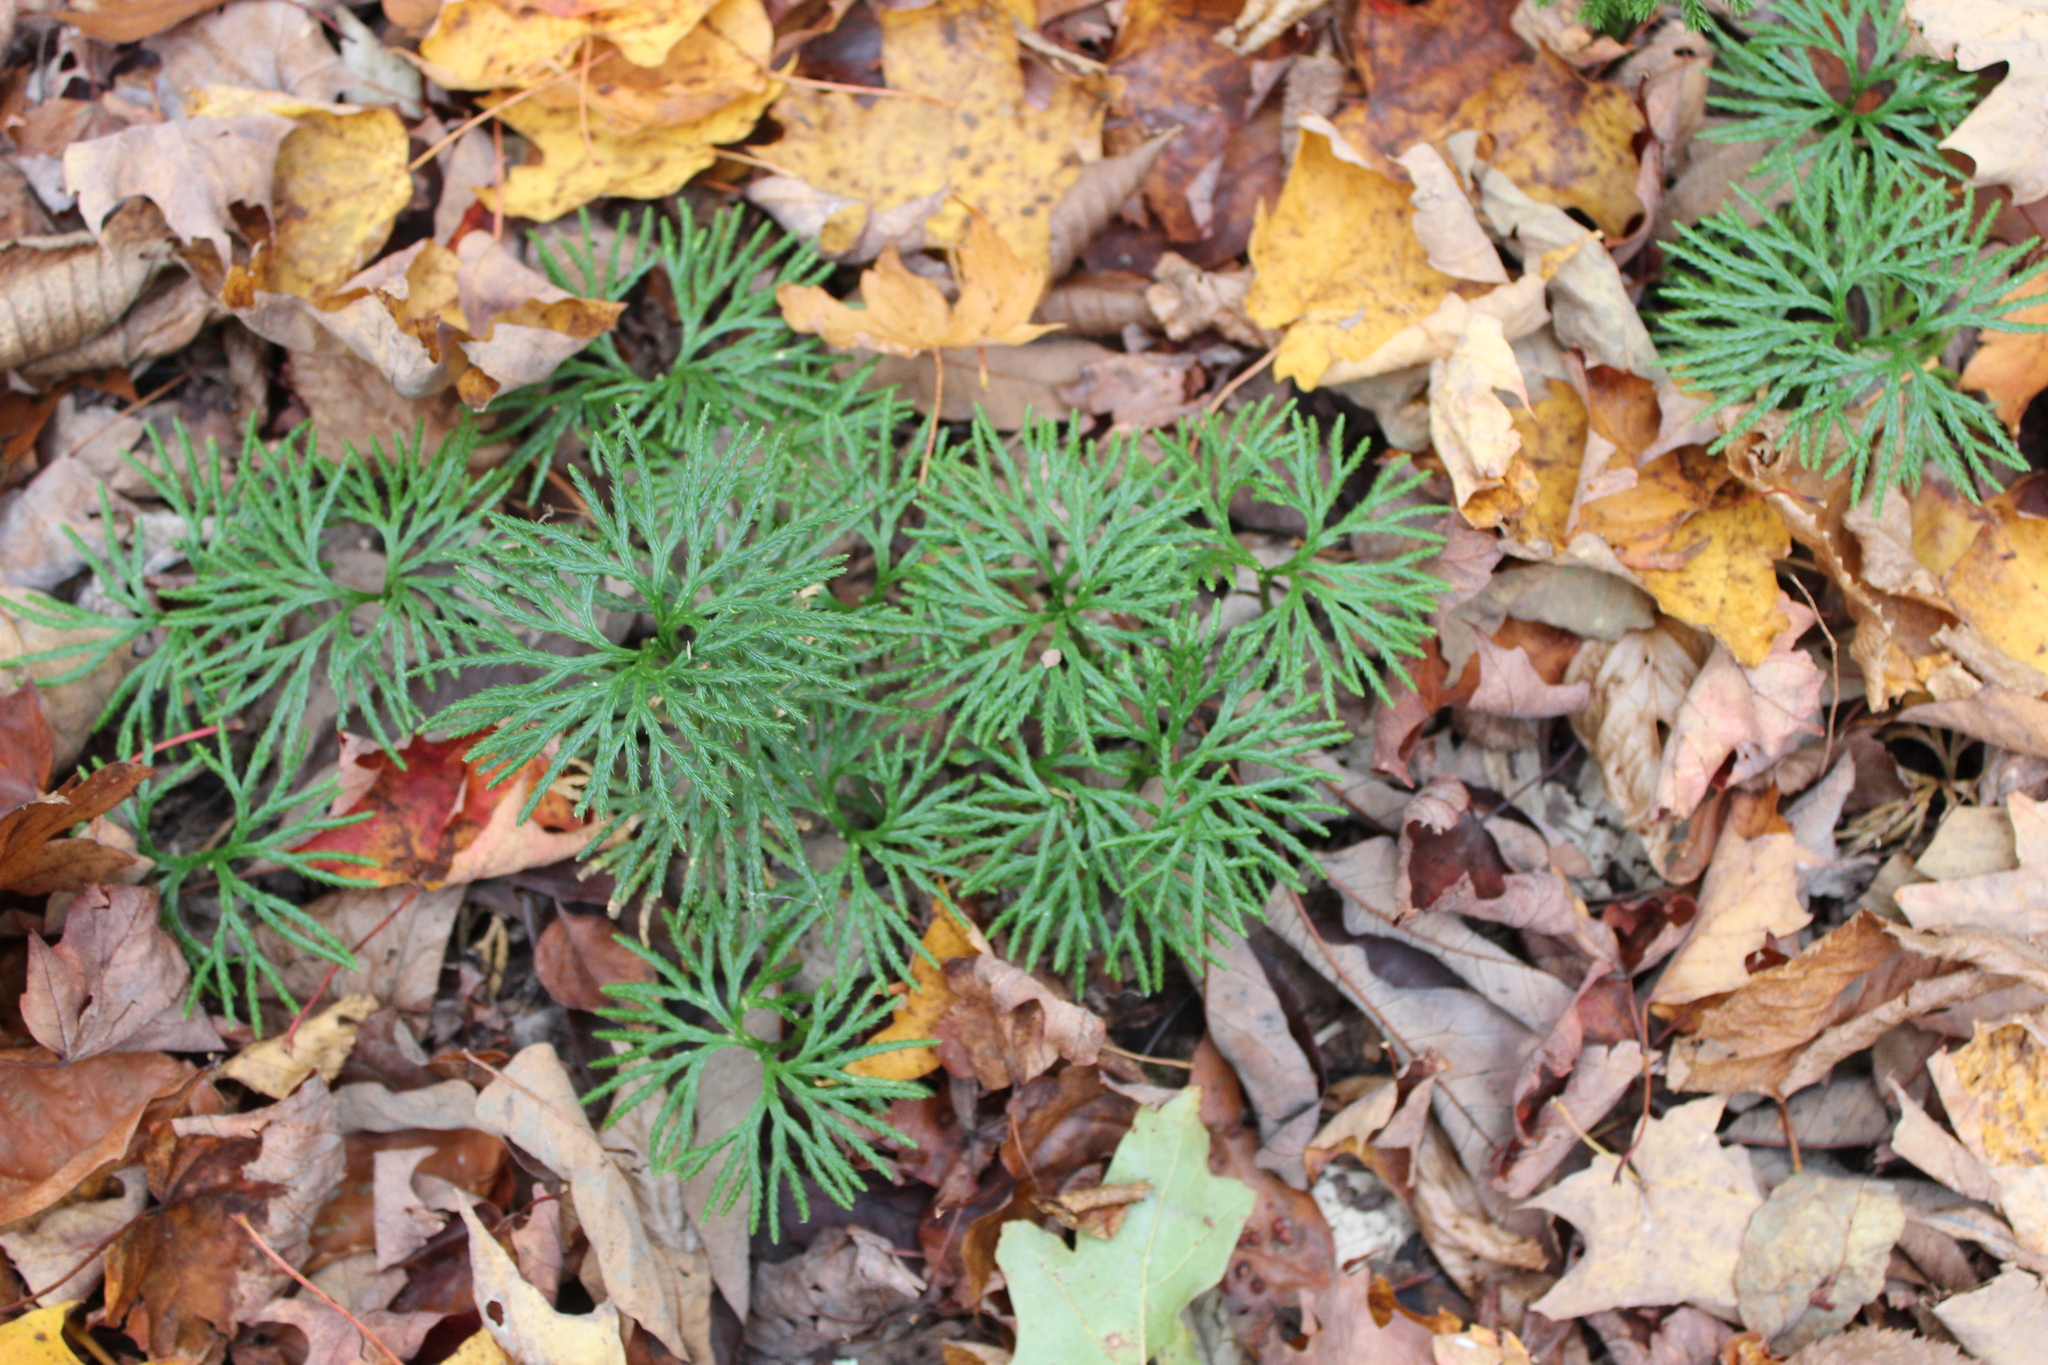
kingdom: Plantae
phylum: Tracheophyta
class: Lycopodiopsida
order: Lycopodiales
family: Lycopodiaceae
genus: Diphasiastrum
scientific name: Diphasiastrum digitatum
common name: Southern running-pine
